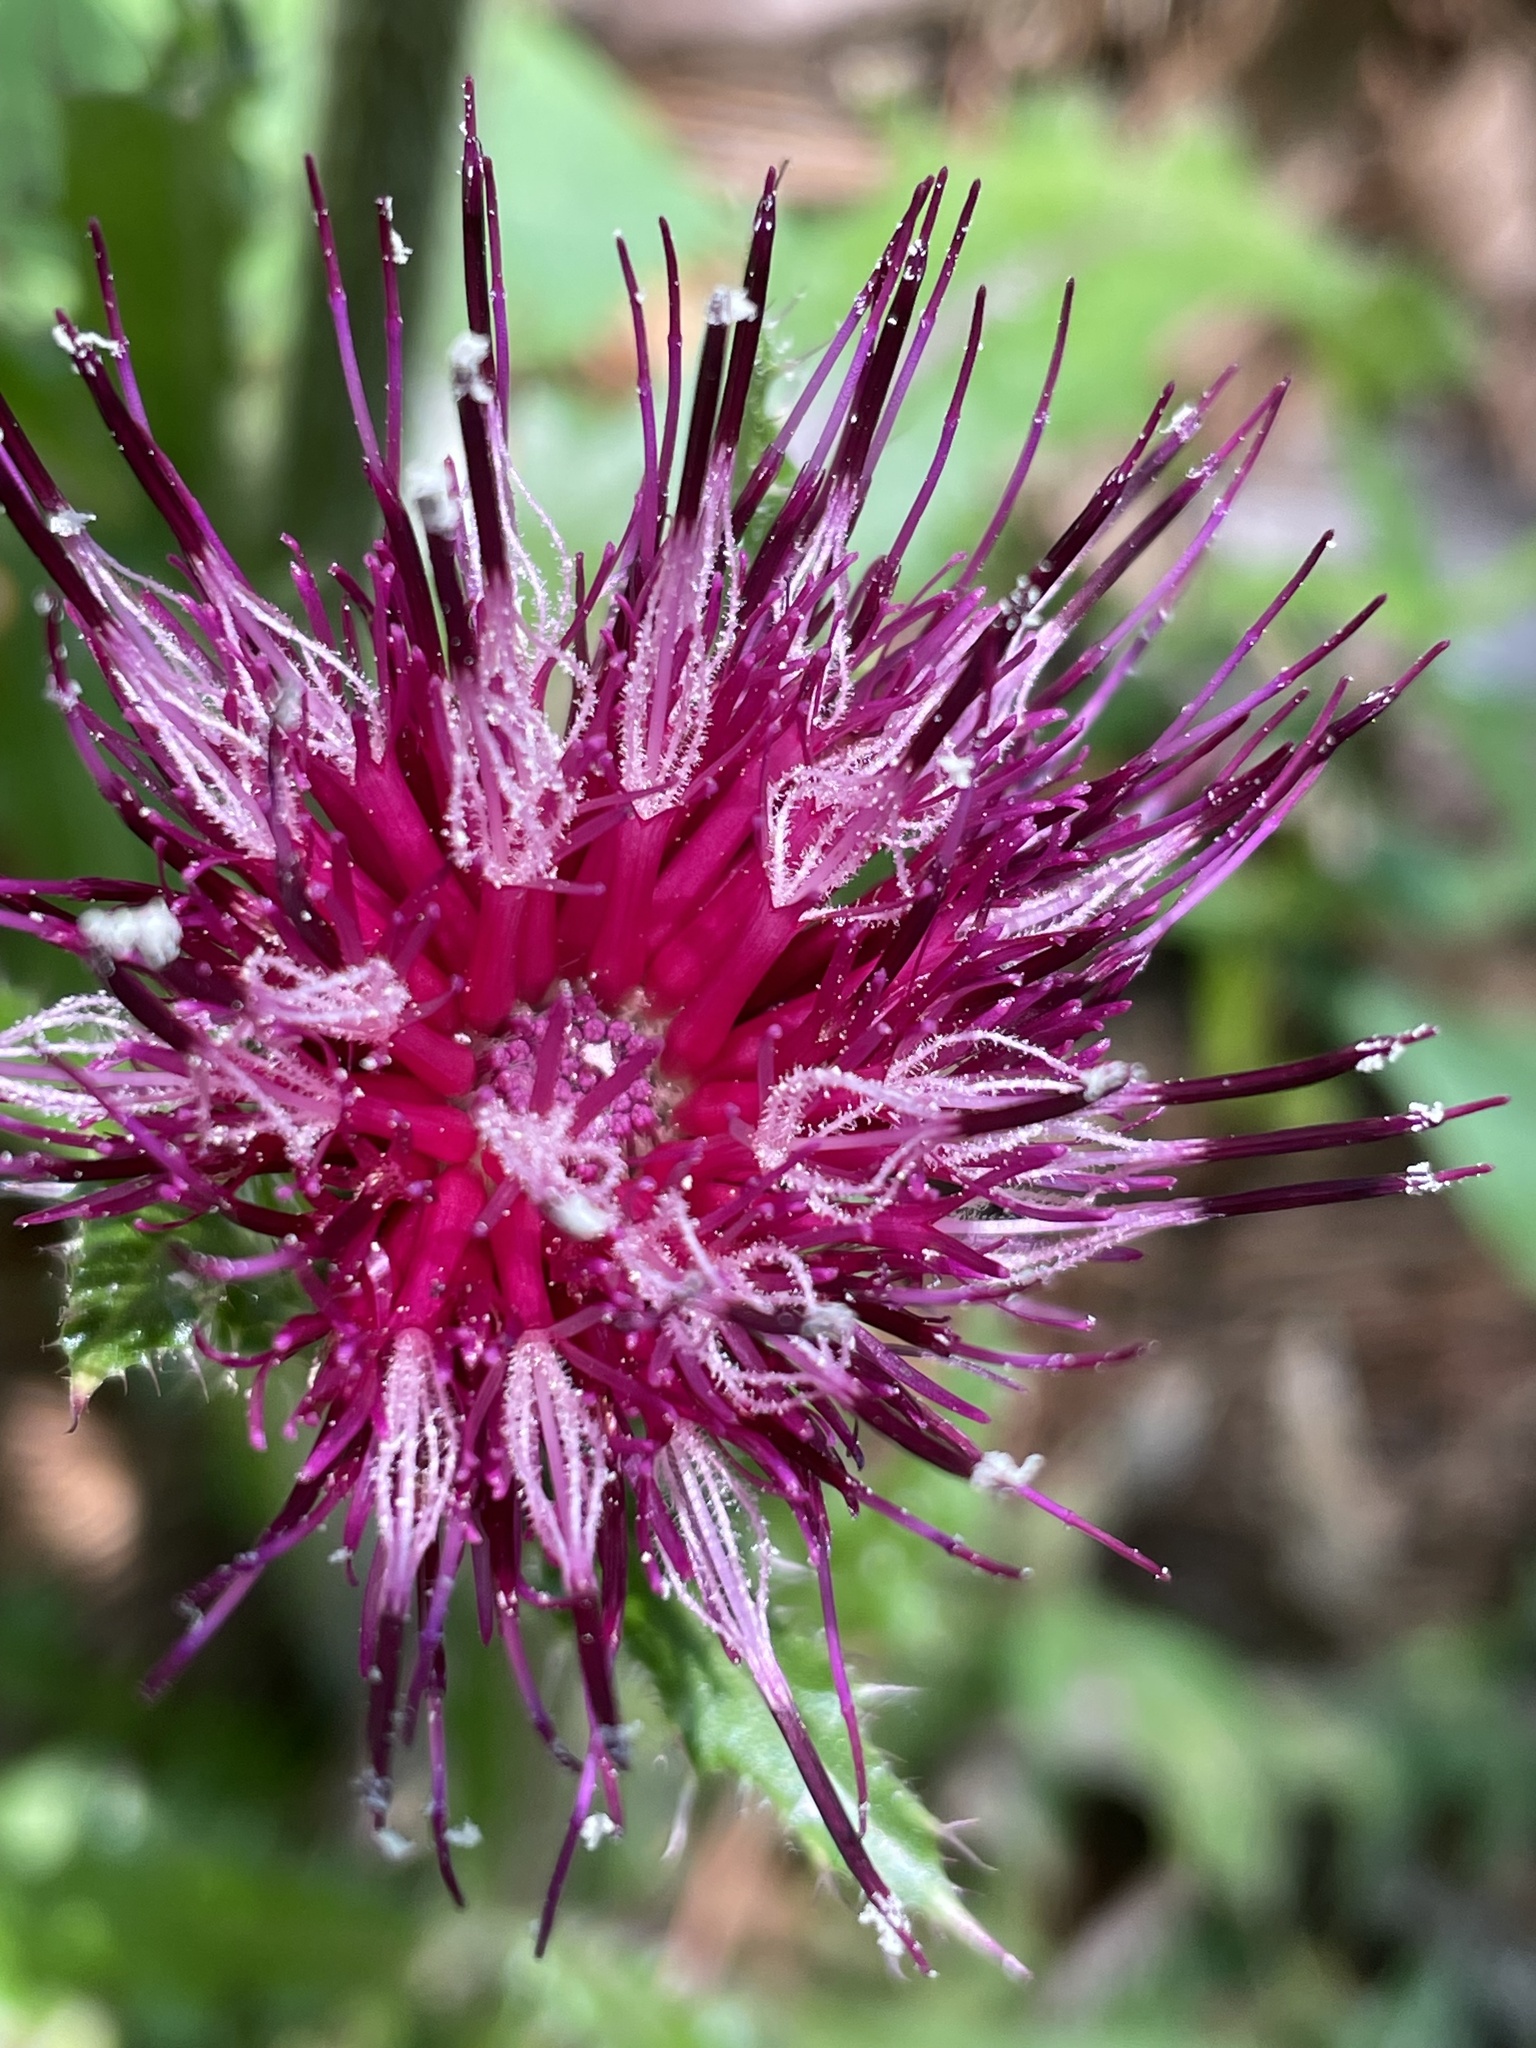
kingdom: Plantae
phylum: Tracheophyta
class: Magnoliopsida
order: Asterales
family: Asteraceae
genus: Cirsium
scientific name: Cirsium horridulum
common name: Bristly thistle
